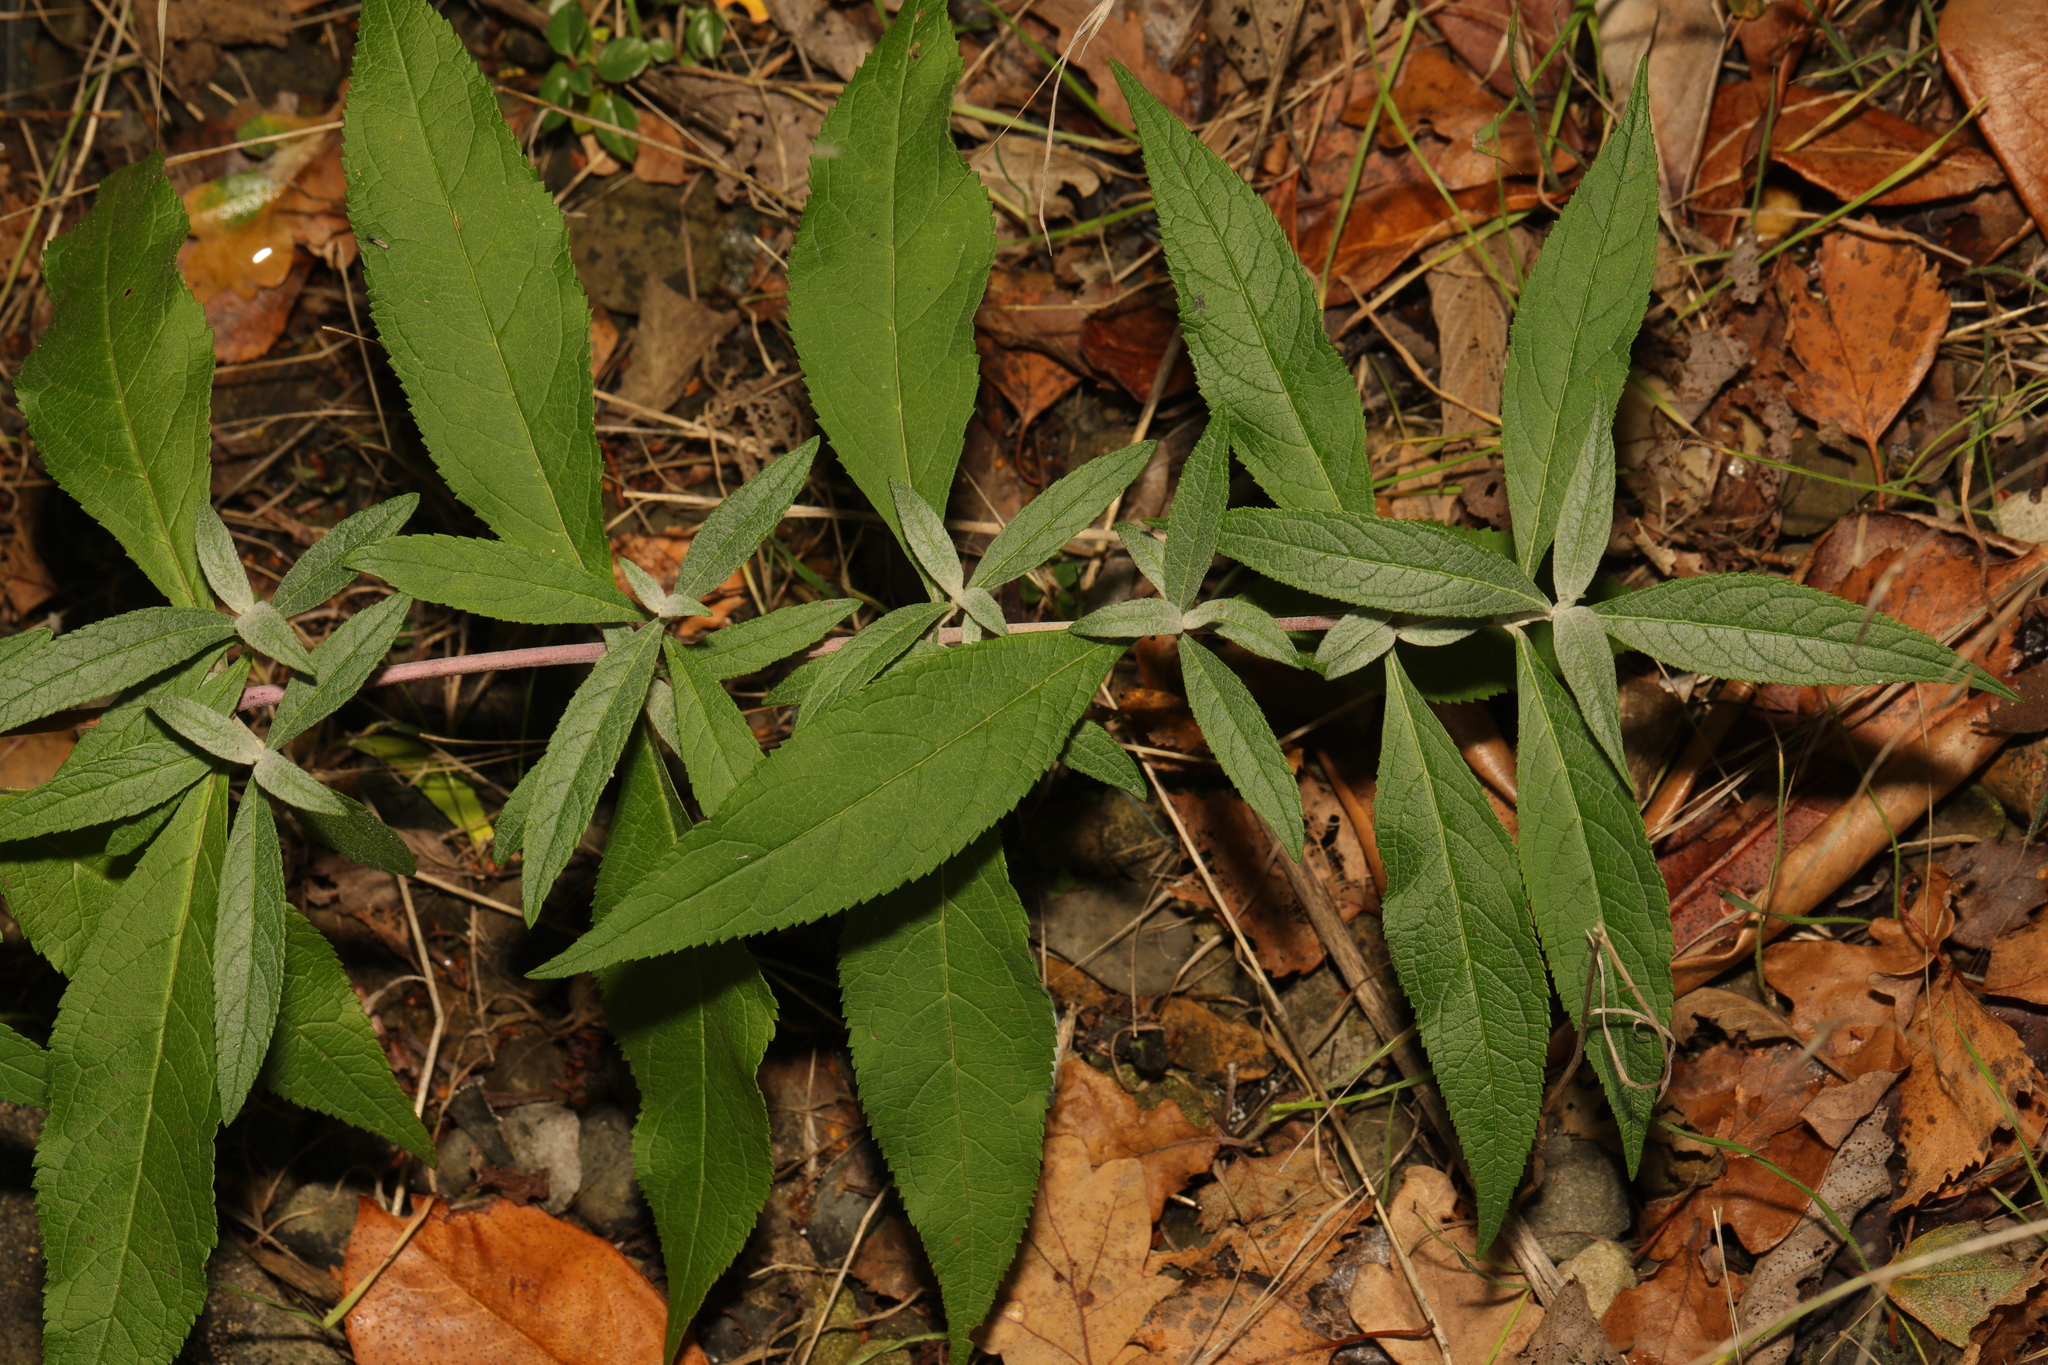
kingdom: Plantae
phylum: Tracheophyta
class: Magnoliopsida
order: Lamiales
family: Scrophulariaceae
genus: Buddleja
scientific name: Buddleja davidii
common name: Butterfly-bush
